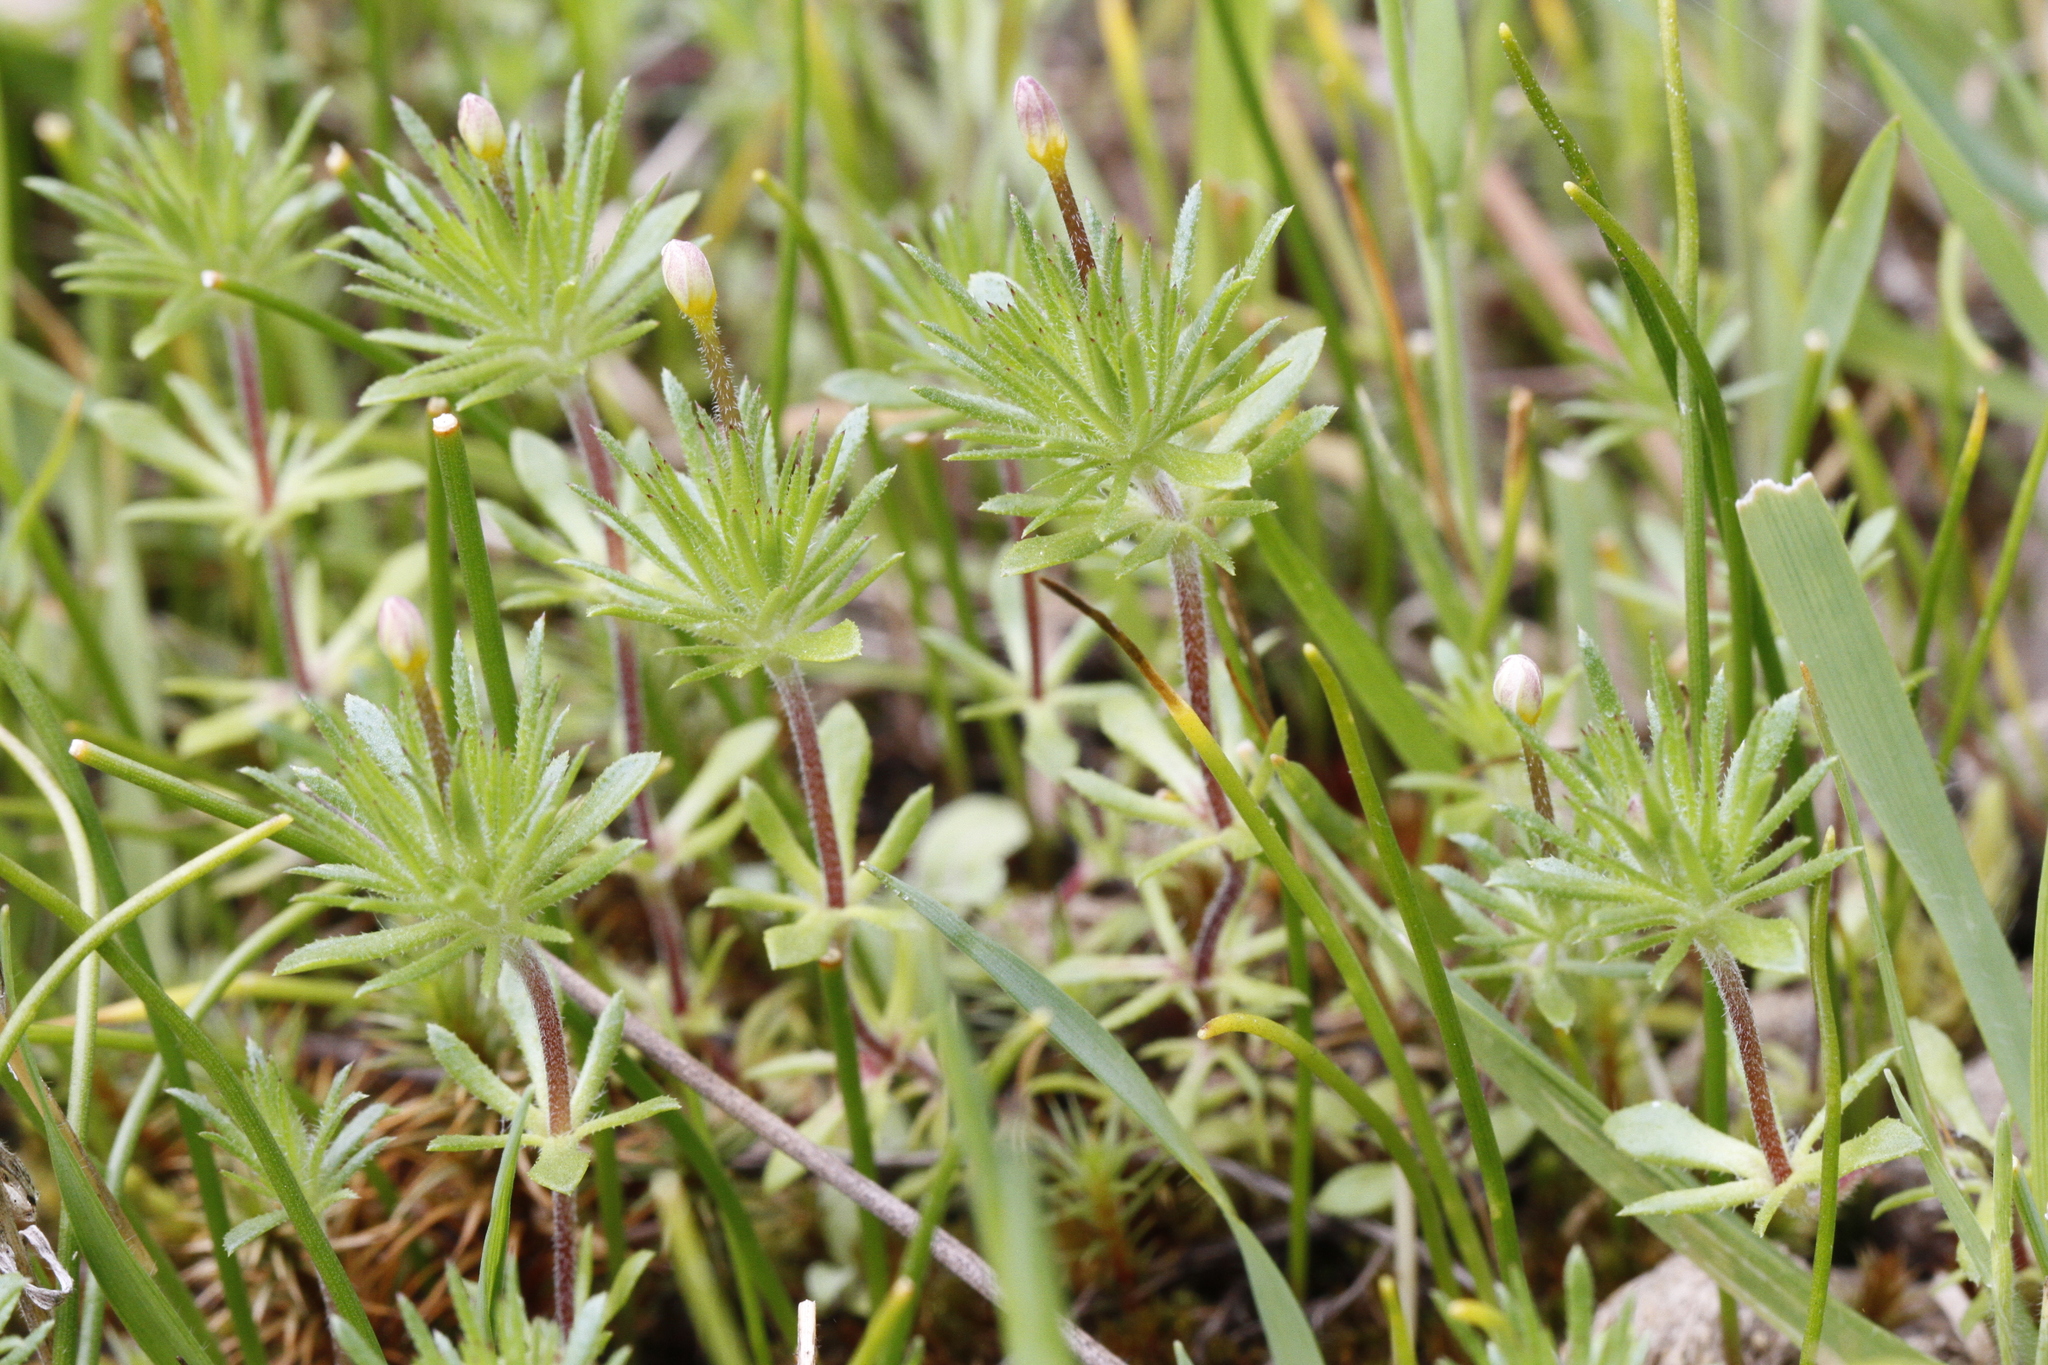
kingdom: Plantae
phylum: Tracheophyta
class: Magnoliopsida
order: Ericales
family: Polemoniaceae
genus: Leptosiphon
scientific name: Leptosiphon bicolor
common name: True babystars
